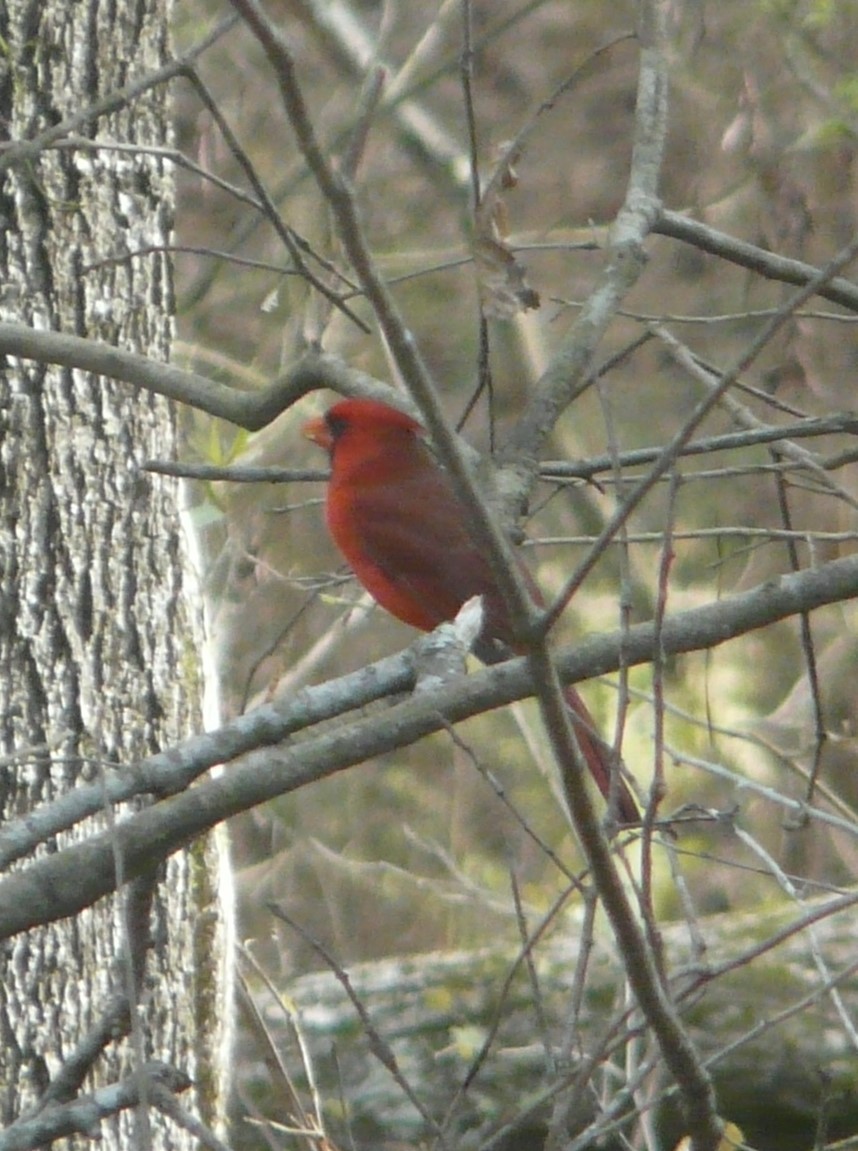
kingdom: Animalia
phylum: Chordata
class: Aves
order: Passeriformes
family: Cardinalidae
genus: Cardinalis
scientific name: Cardinalis cardinalis
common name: Northern cardinal
